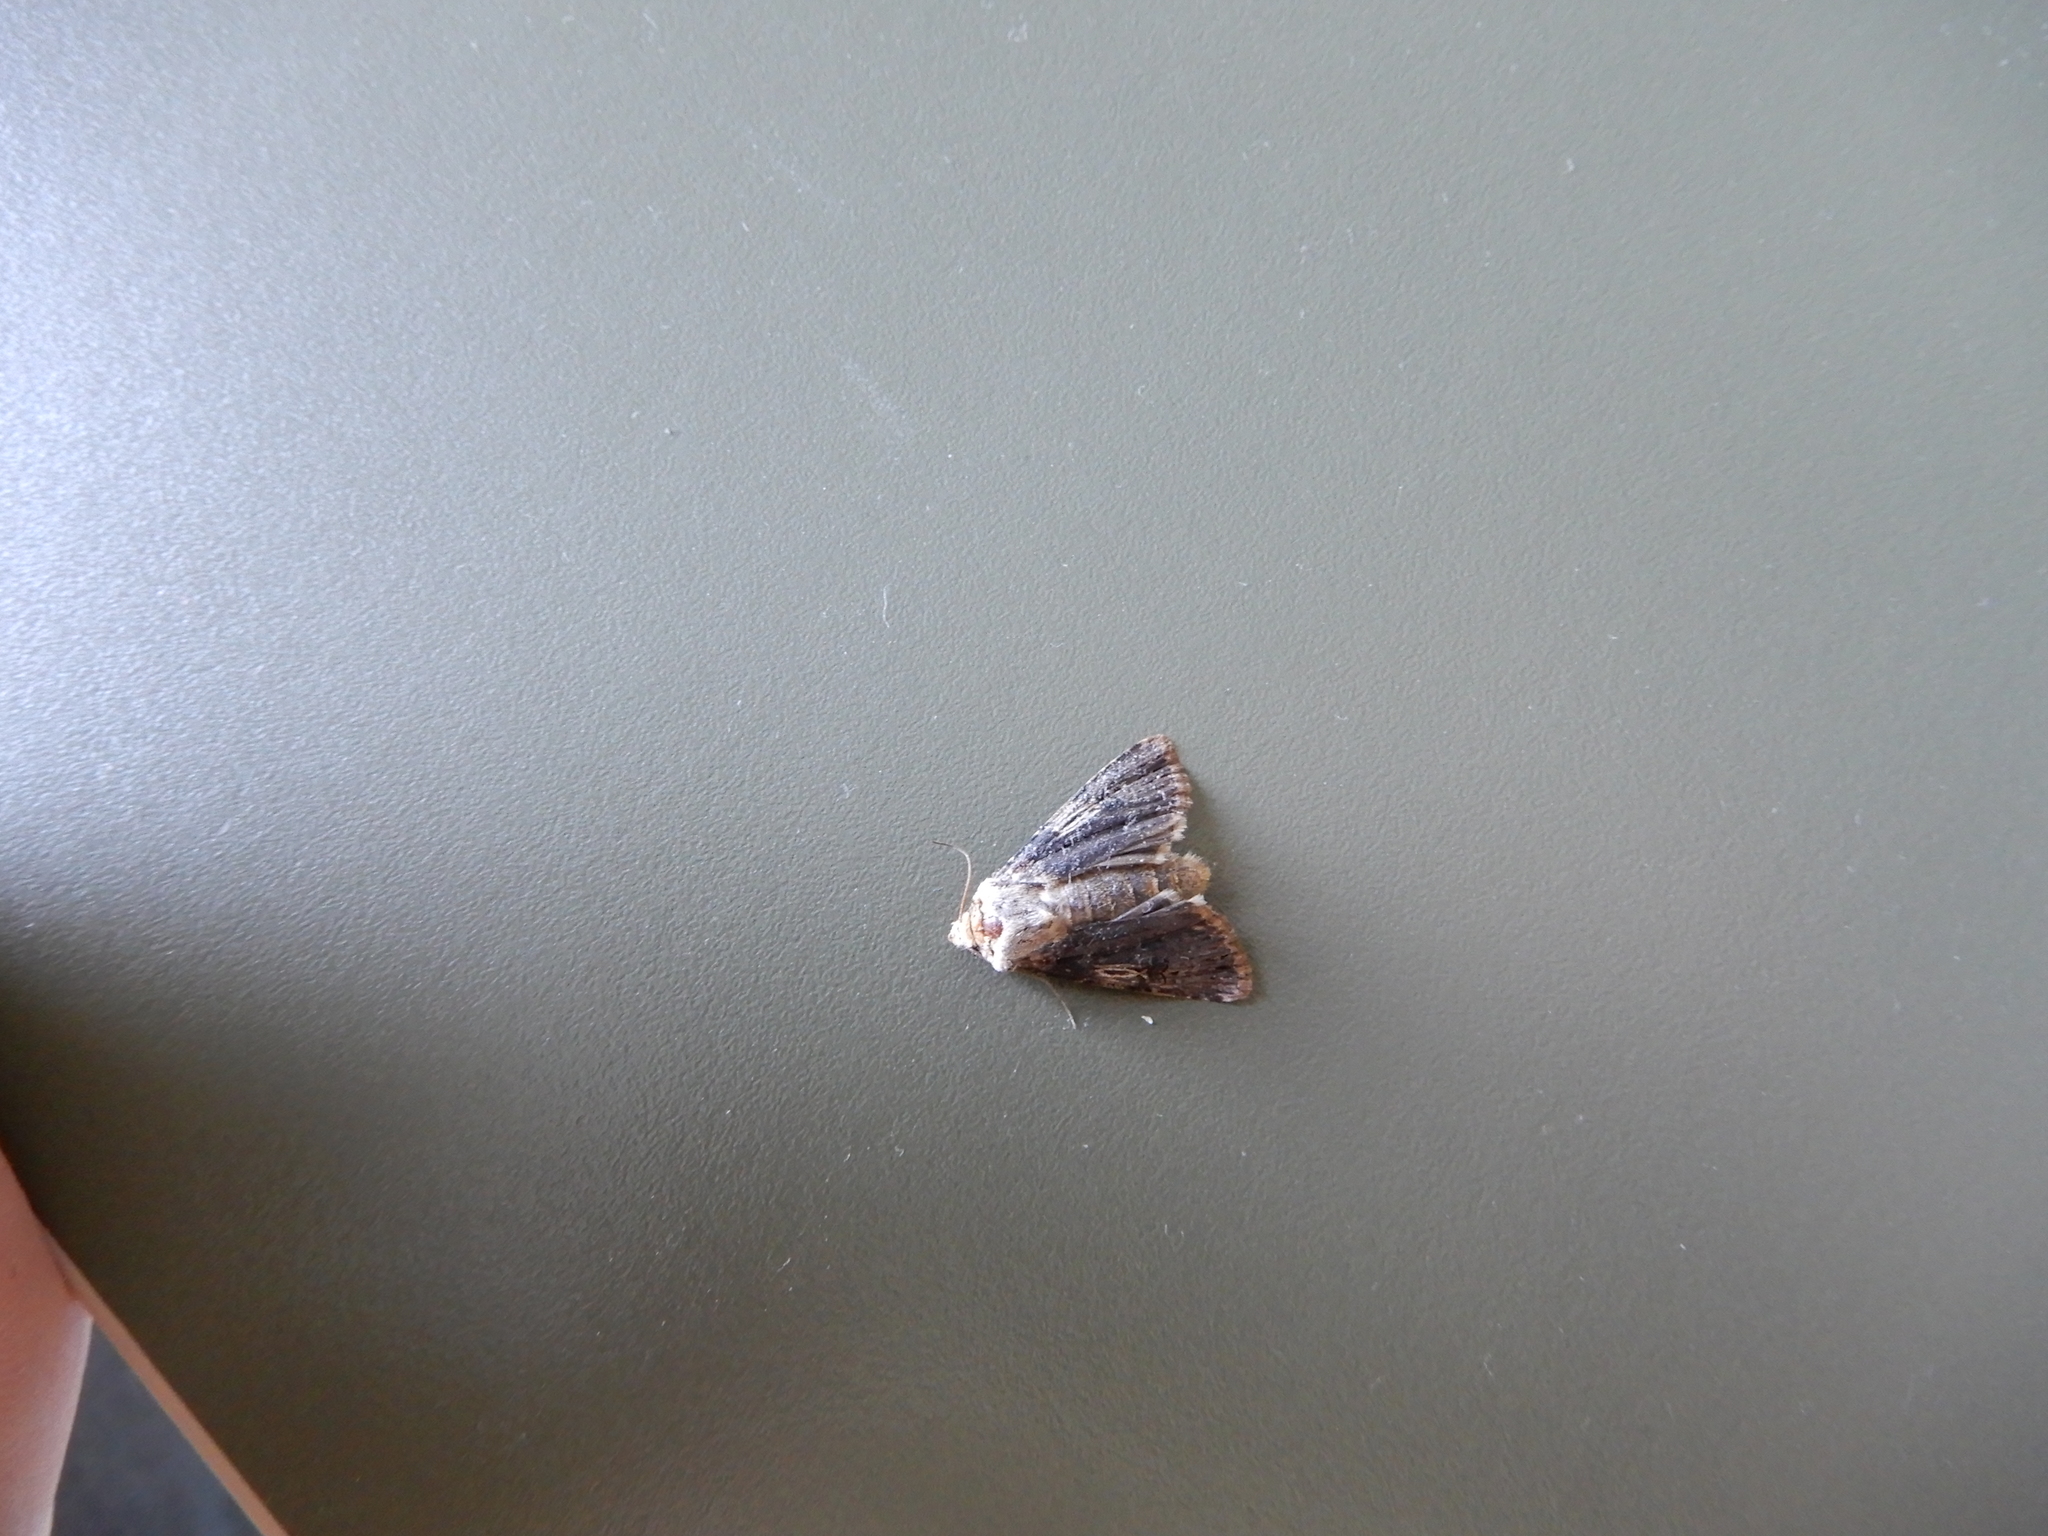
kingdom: Animalia
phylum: Arthropoda
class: Insecta
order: Lepidoptera
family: Noctuidae
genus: Agrotis
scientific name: Agrotis puta
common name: Shuttle-shaped dart
